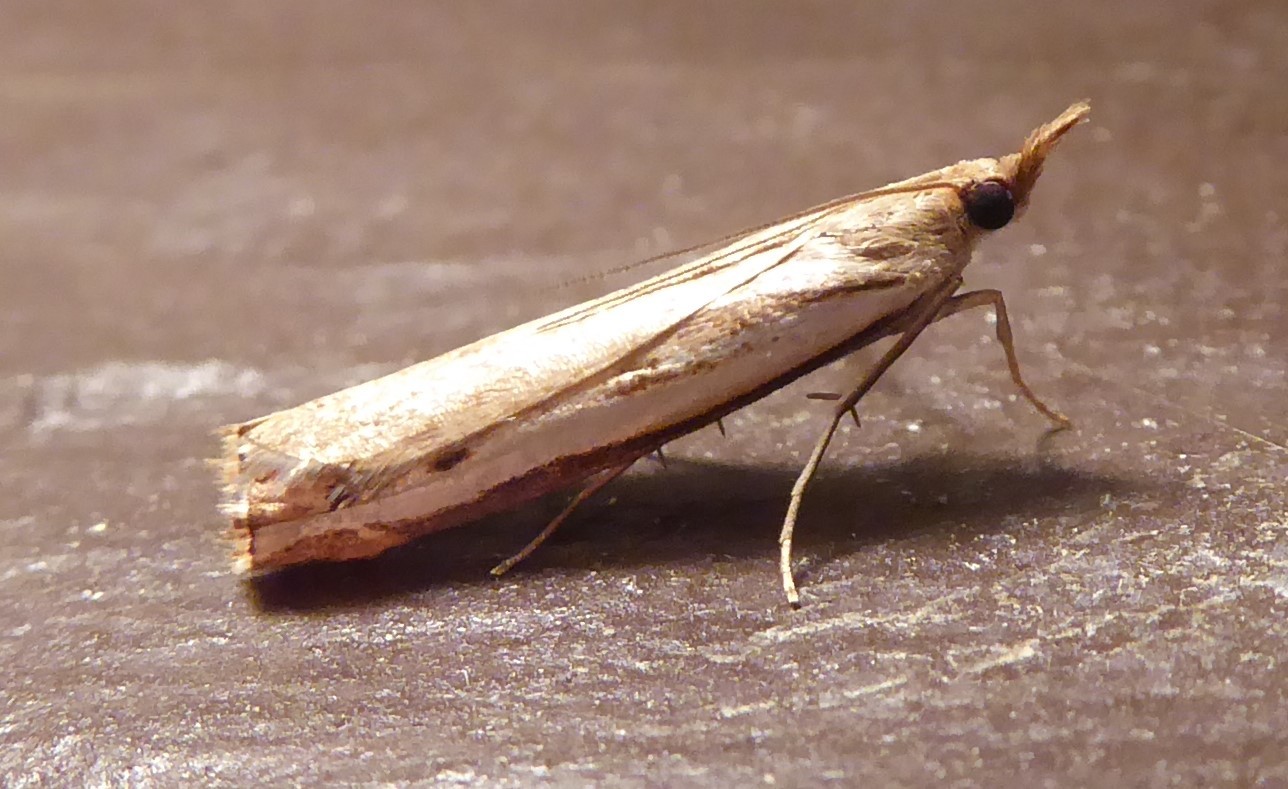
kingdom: Animalia
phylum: Arthropoda
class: Insecta
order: Lepidoptera
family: Crambidae
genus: Orocrambus
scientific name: Orocrambus flexuosellus
